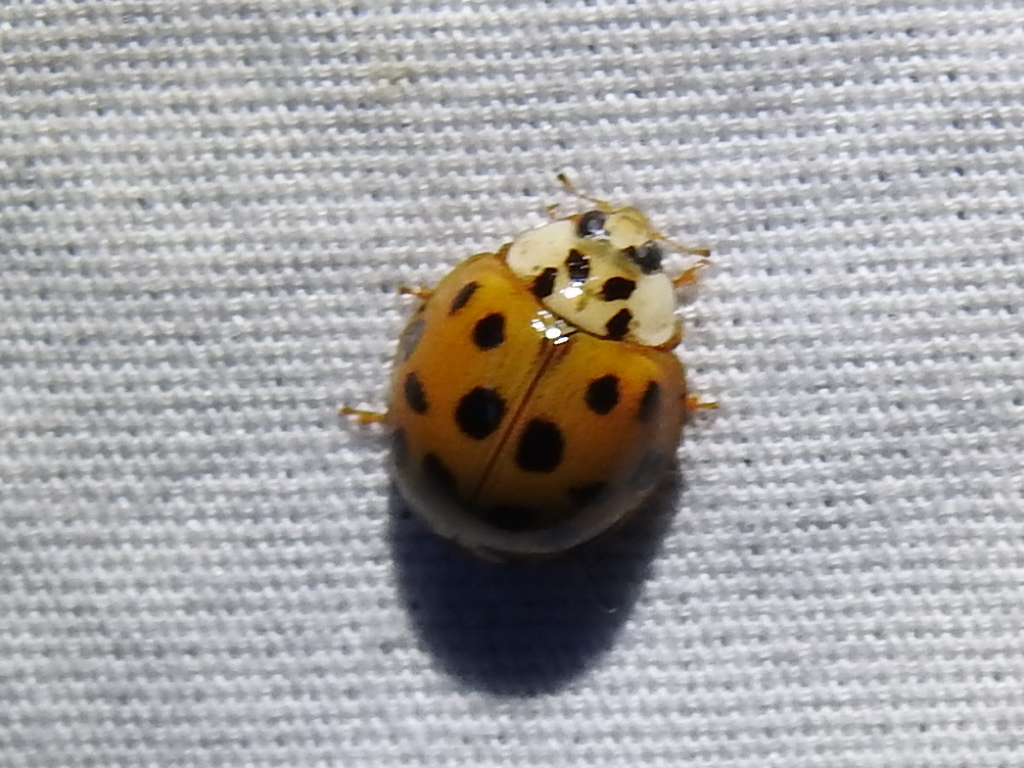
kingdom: Animalia
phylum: Arthropoda
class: Insecta
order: Coleoptera
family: Coccinellidae
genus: Harmonia
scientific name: Harmonia axyridis
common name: Harlequin ladybird
